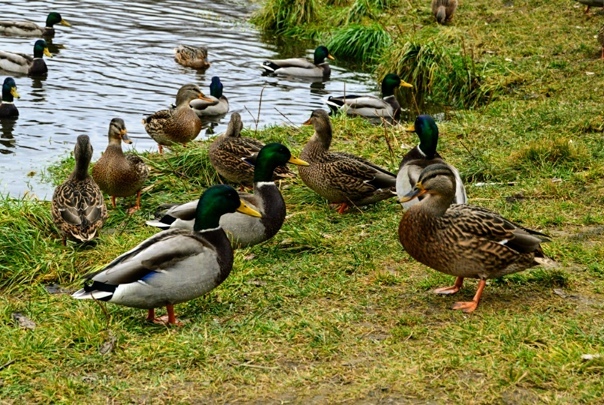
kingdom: Animalia
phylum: Chordata
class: Aves
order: Anseriformes
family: Anatidae
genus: Anas
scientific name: Anas platyrhynchos
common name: Mallard
